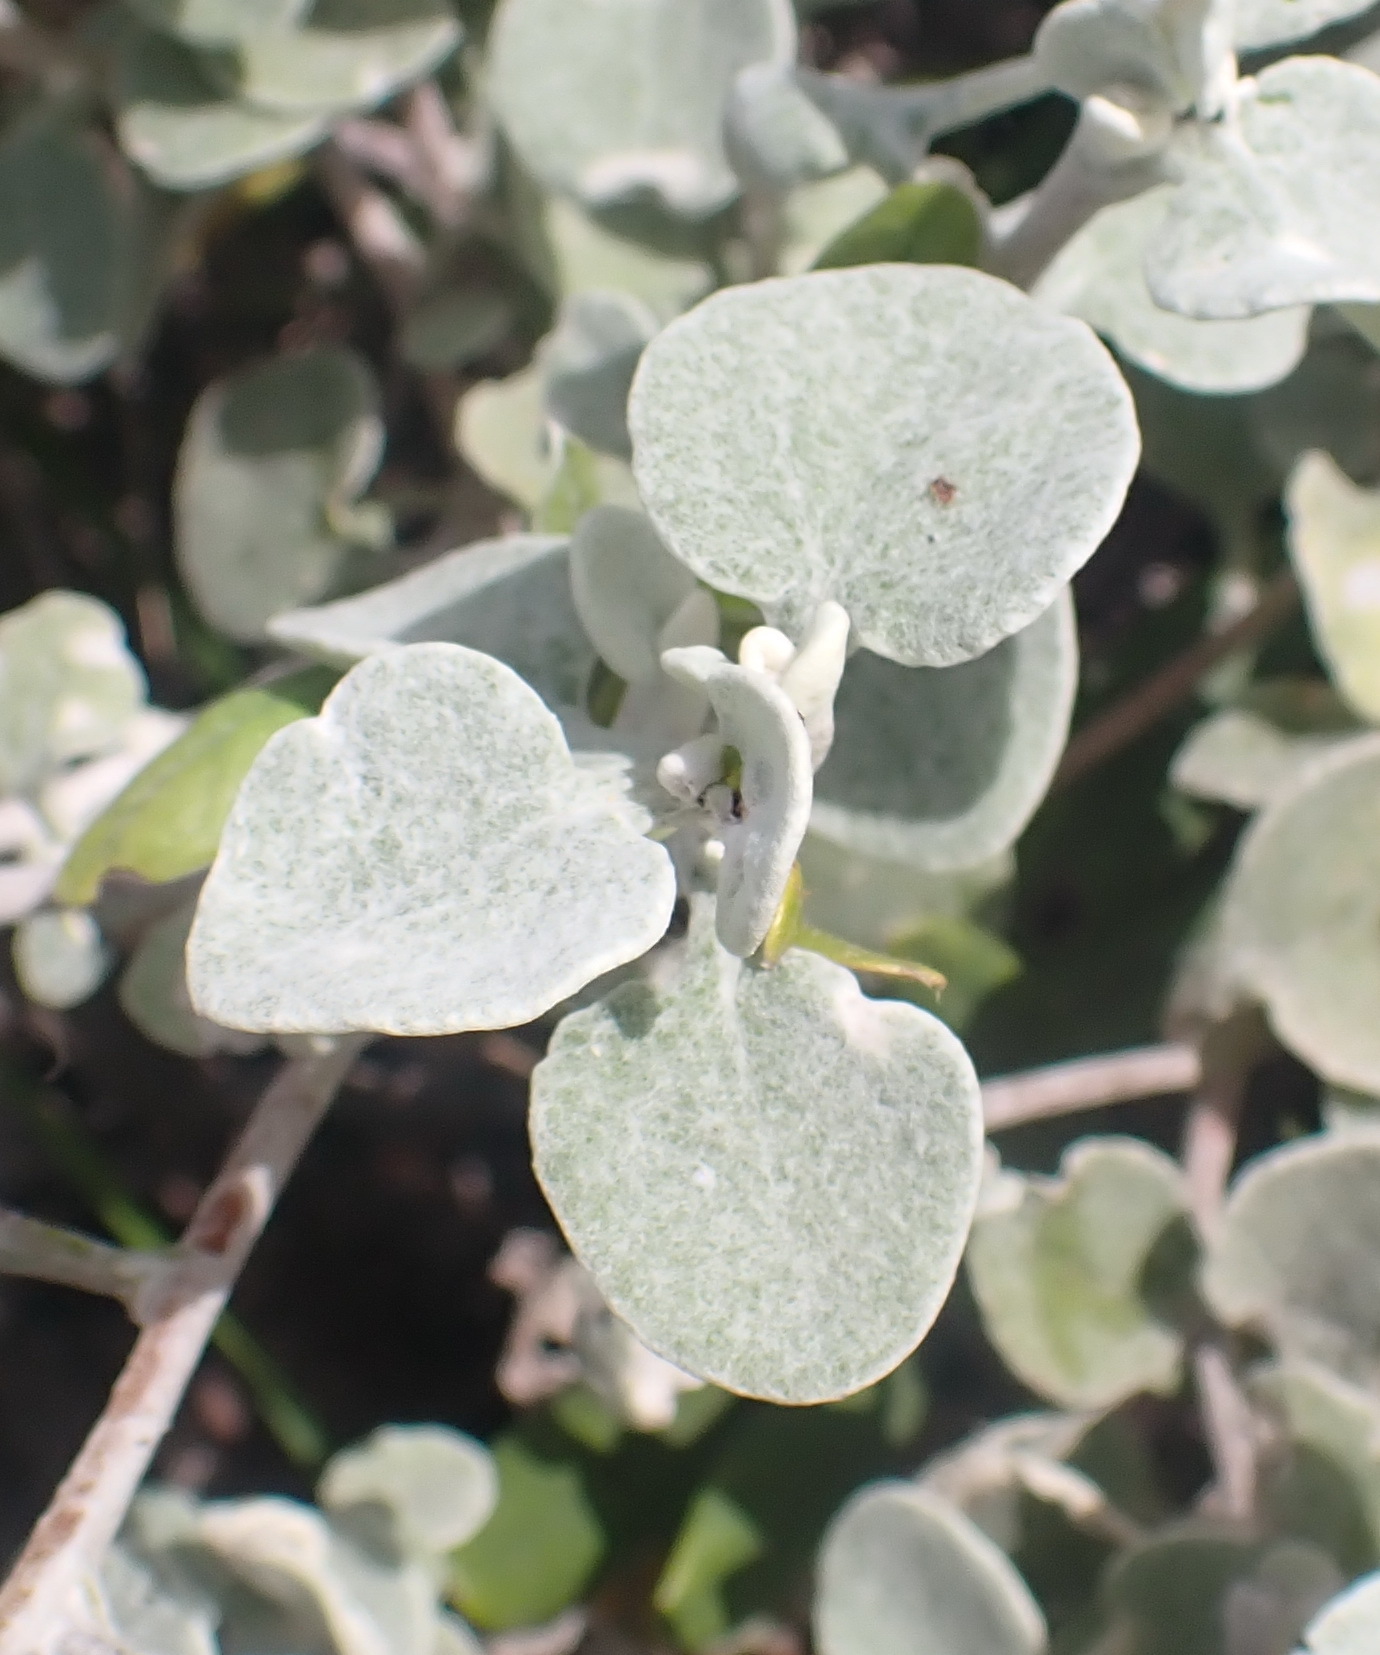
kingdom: Plantae
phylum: Tracheophyta
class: Magnoliopsida
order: Asterales
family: Asteraceae
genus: Helichrysum
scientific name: Helichrysum petiolare
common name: Licorice-plant
